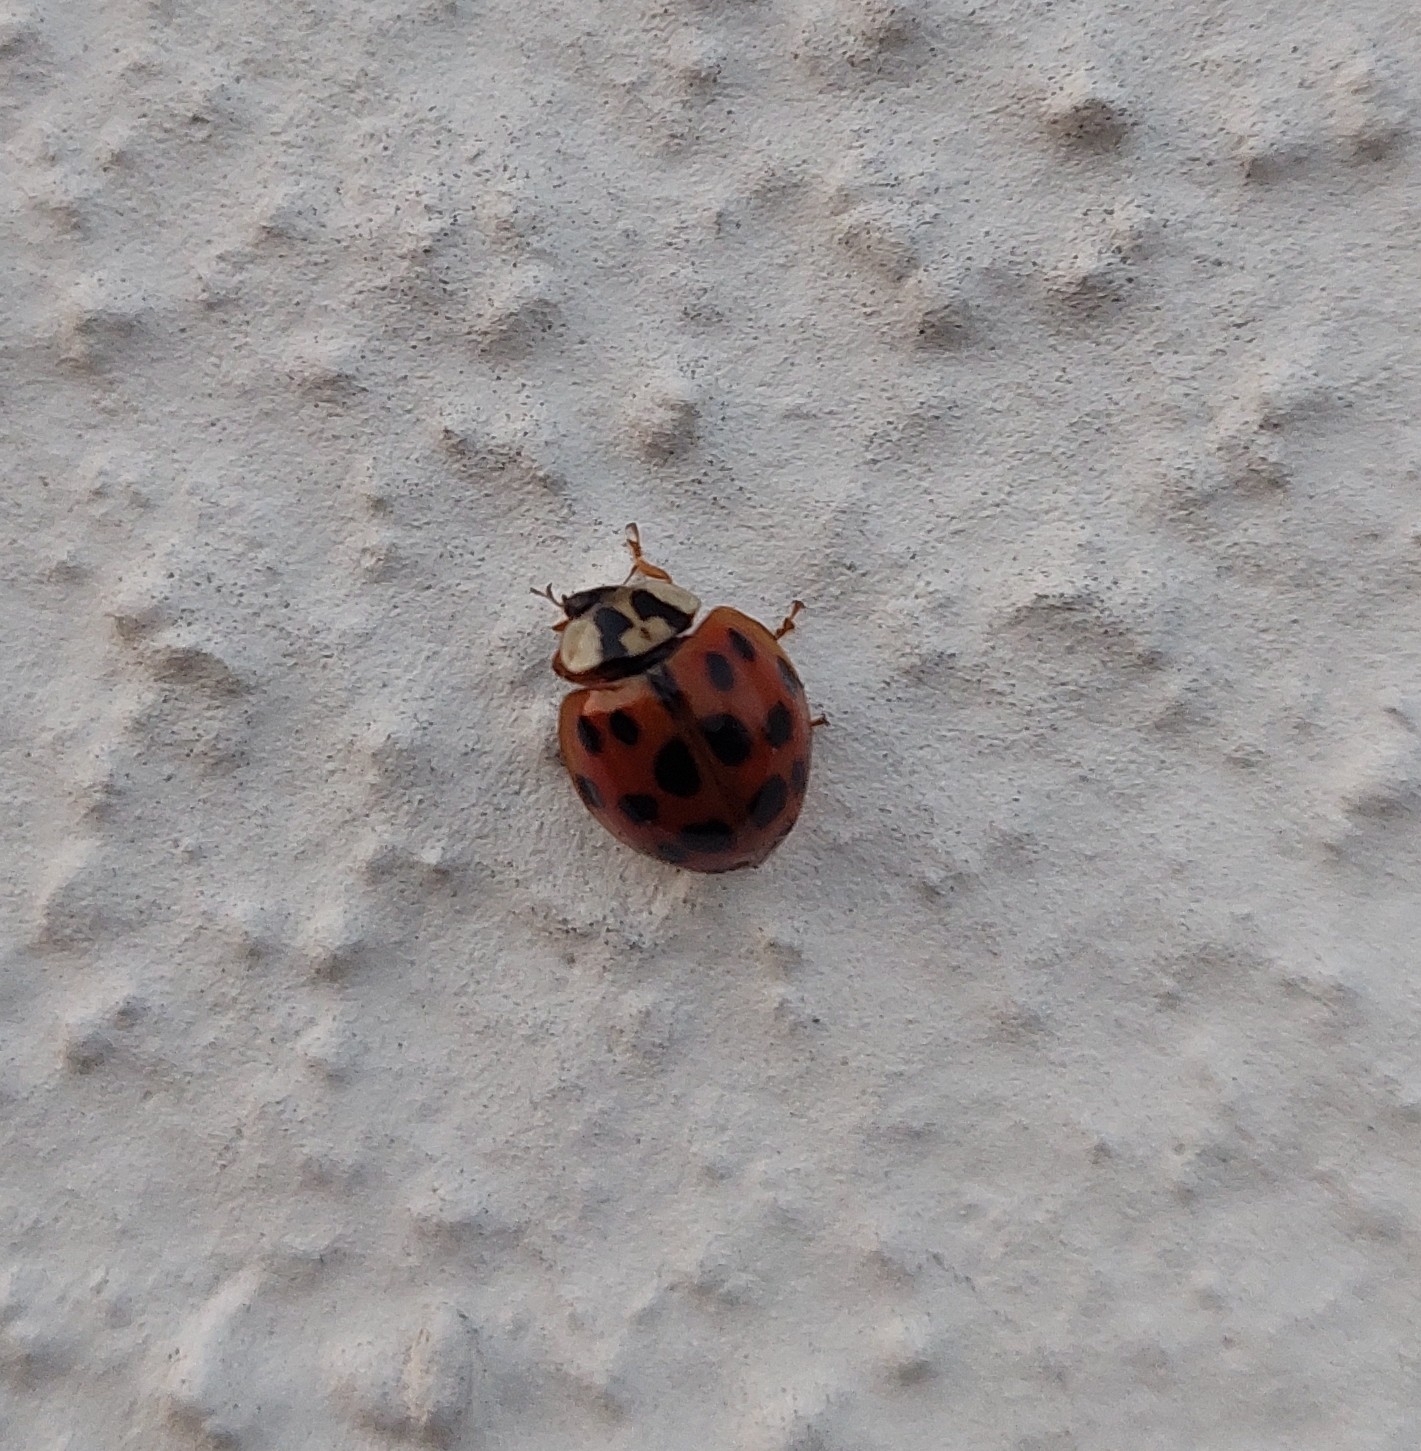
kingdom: Animalia
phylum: Arthropoda
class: Insecta
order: Coleoptera
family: Coccinellidae
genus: Harmonia
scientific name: Harmonia axyridis
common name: Harlequin ladybird
